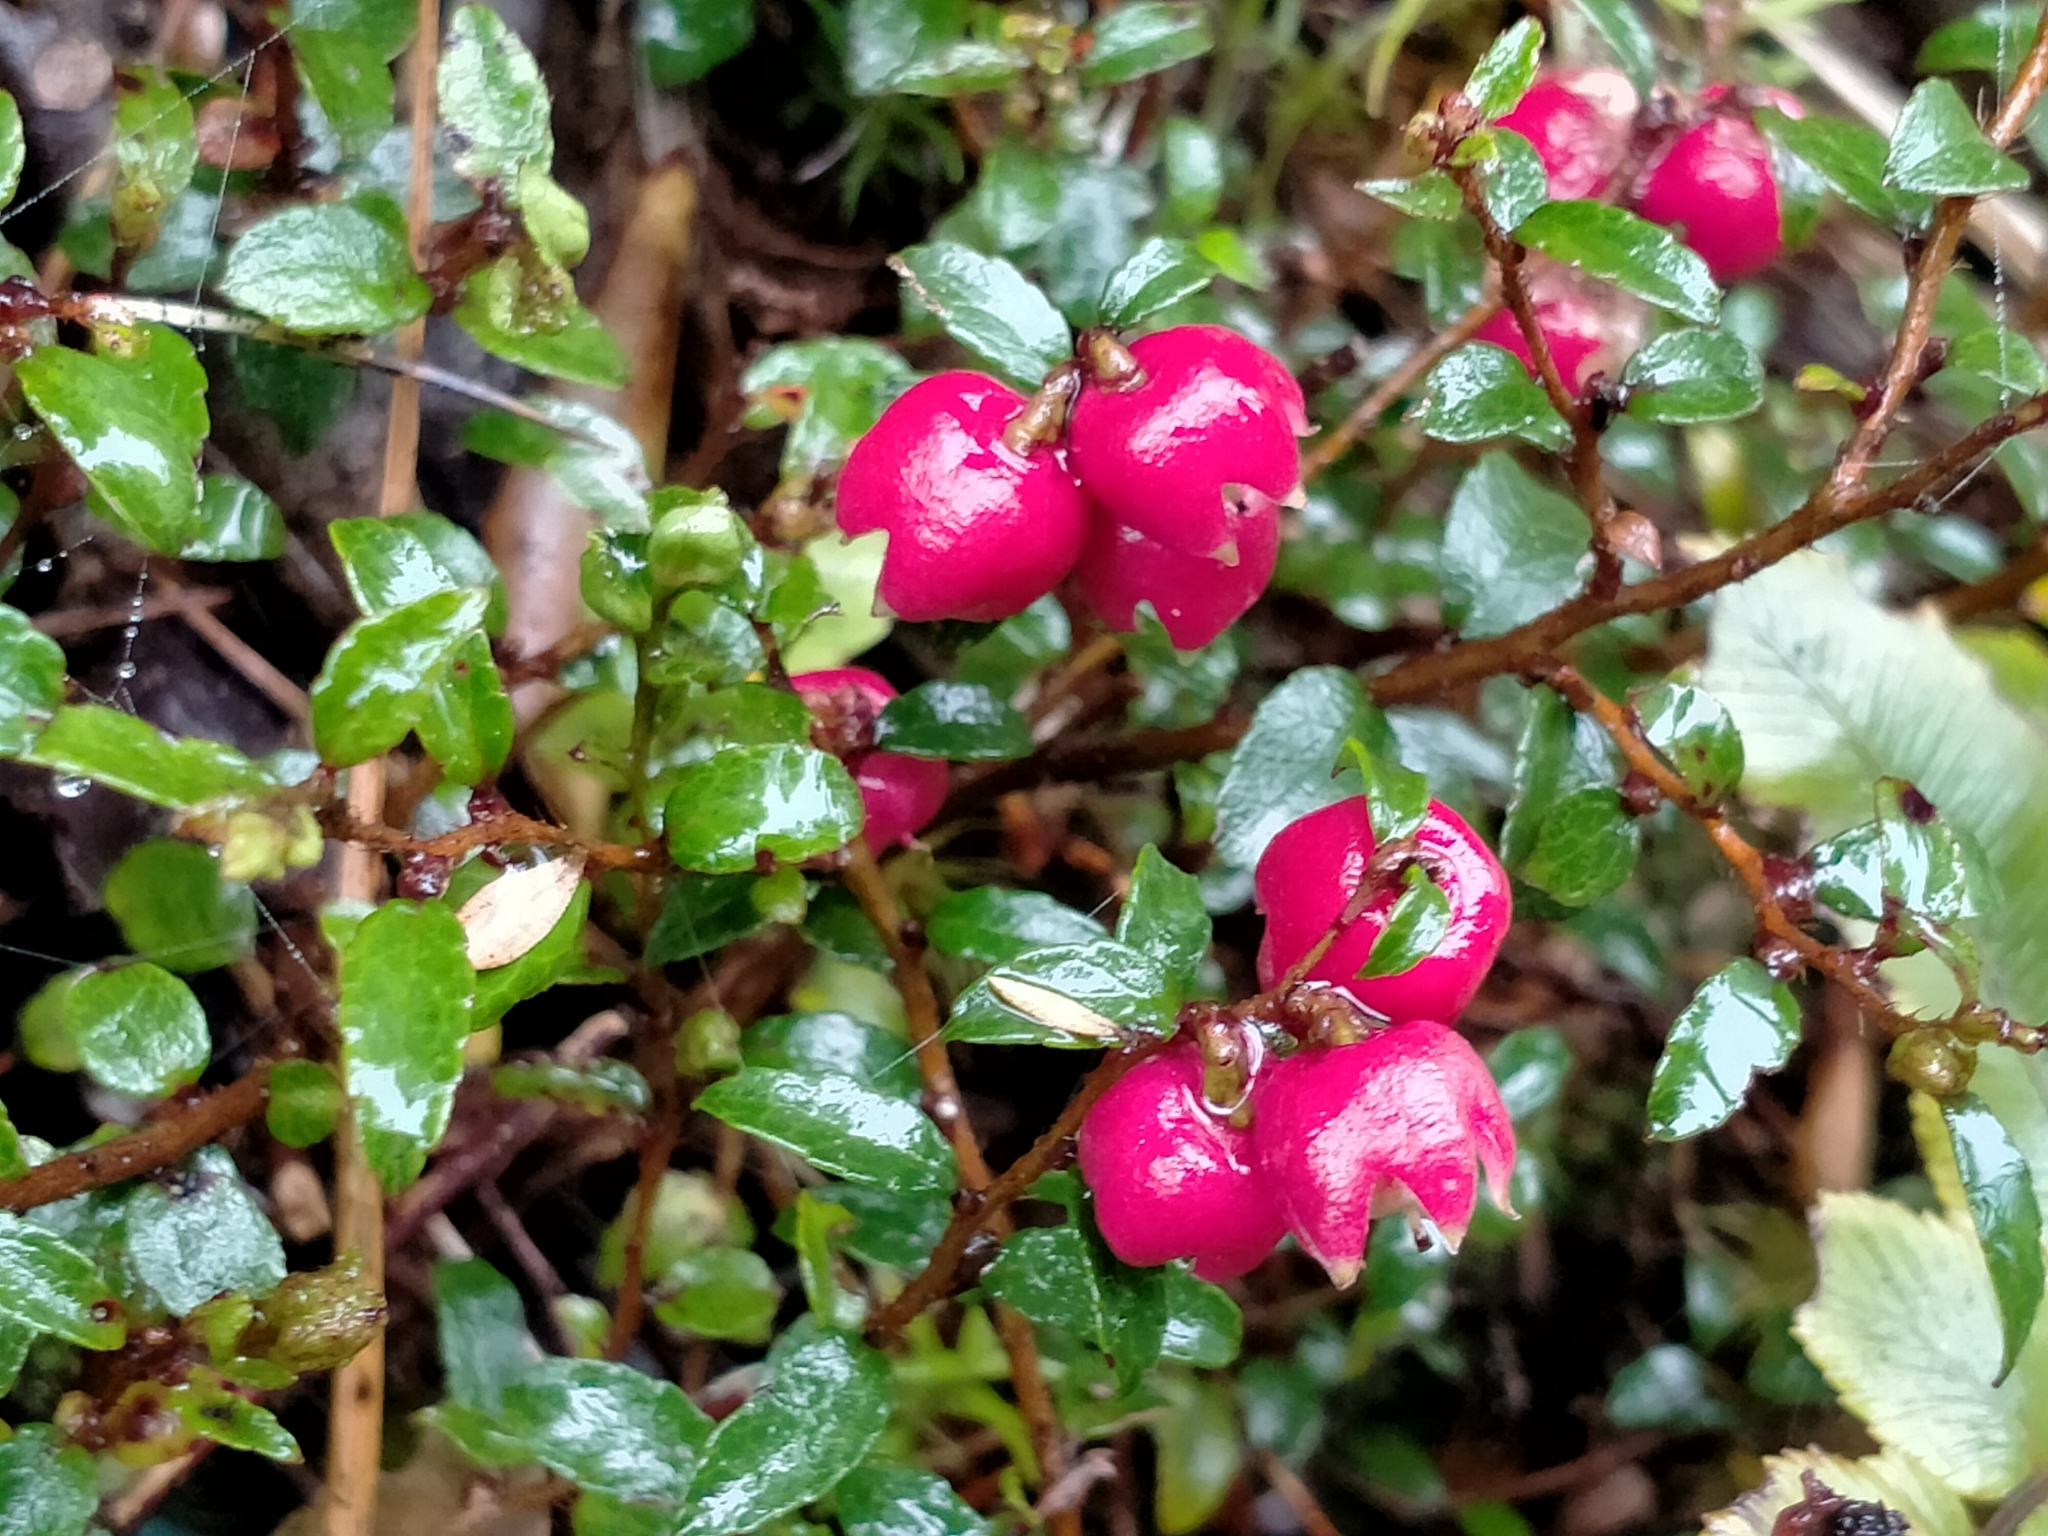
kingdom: Plantae
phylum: Tracheophyta
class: Magnoliopsida
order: Ericales
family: Ericaceae
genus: Gaultheria
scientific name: Gaultheria
